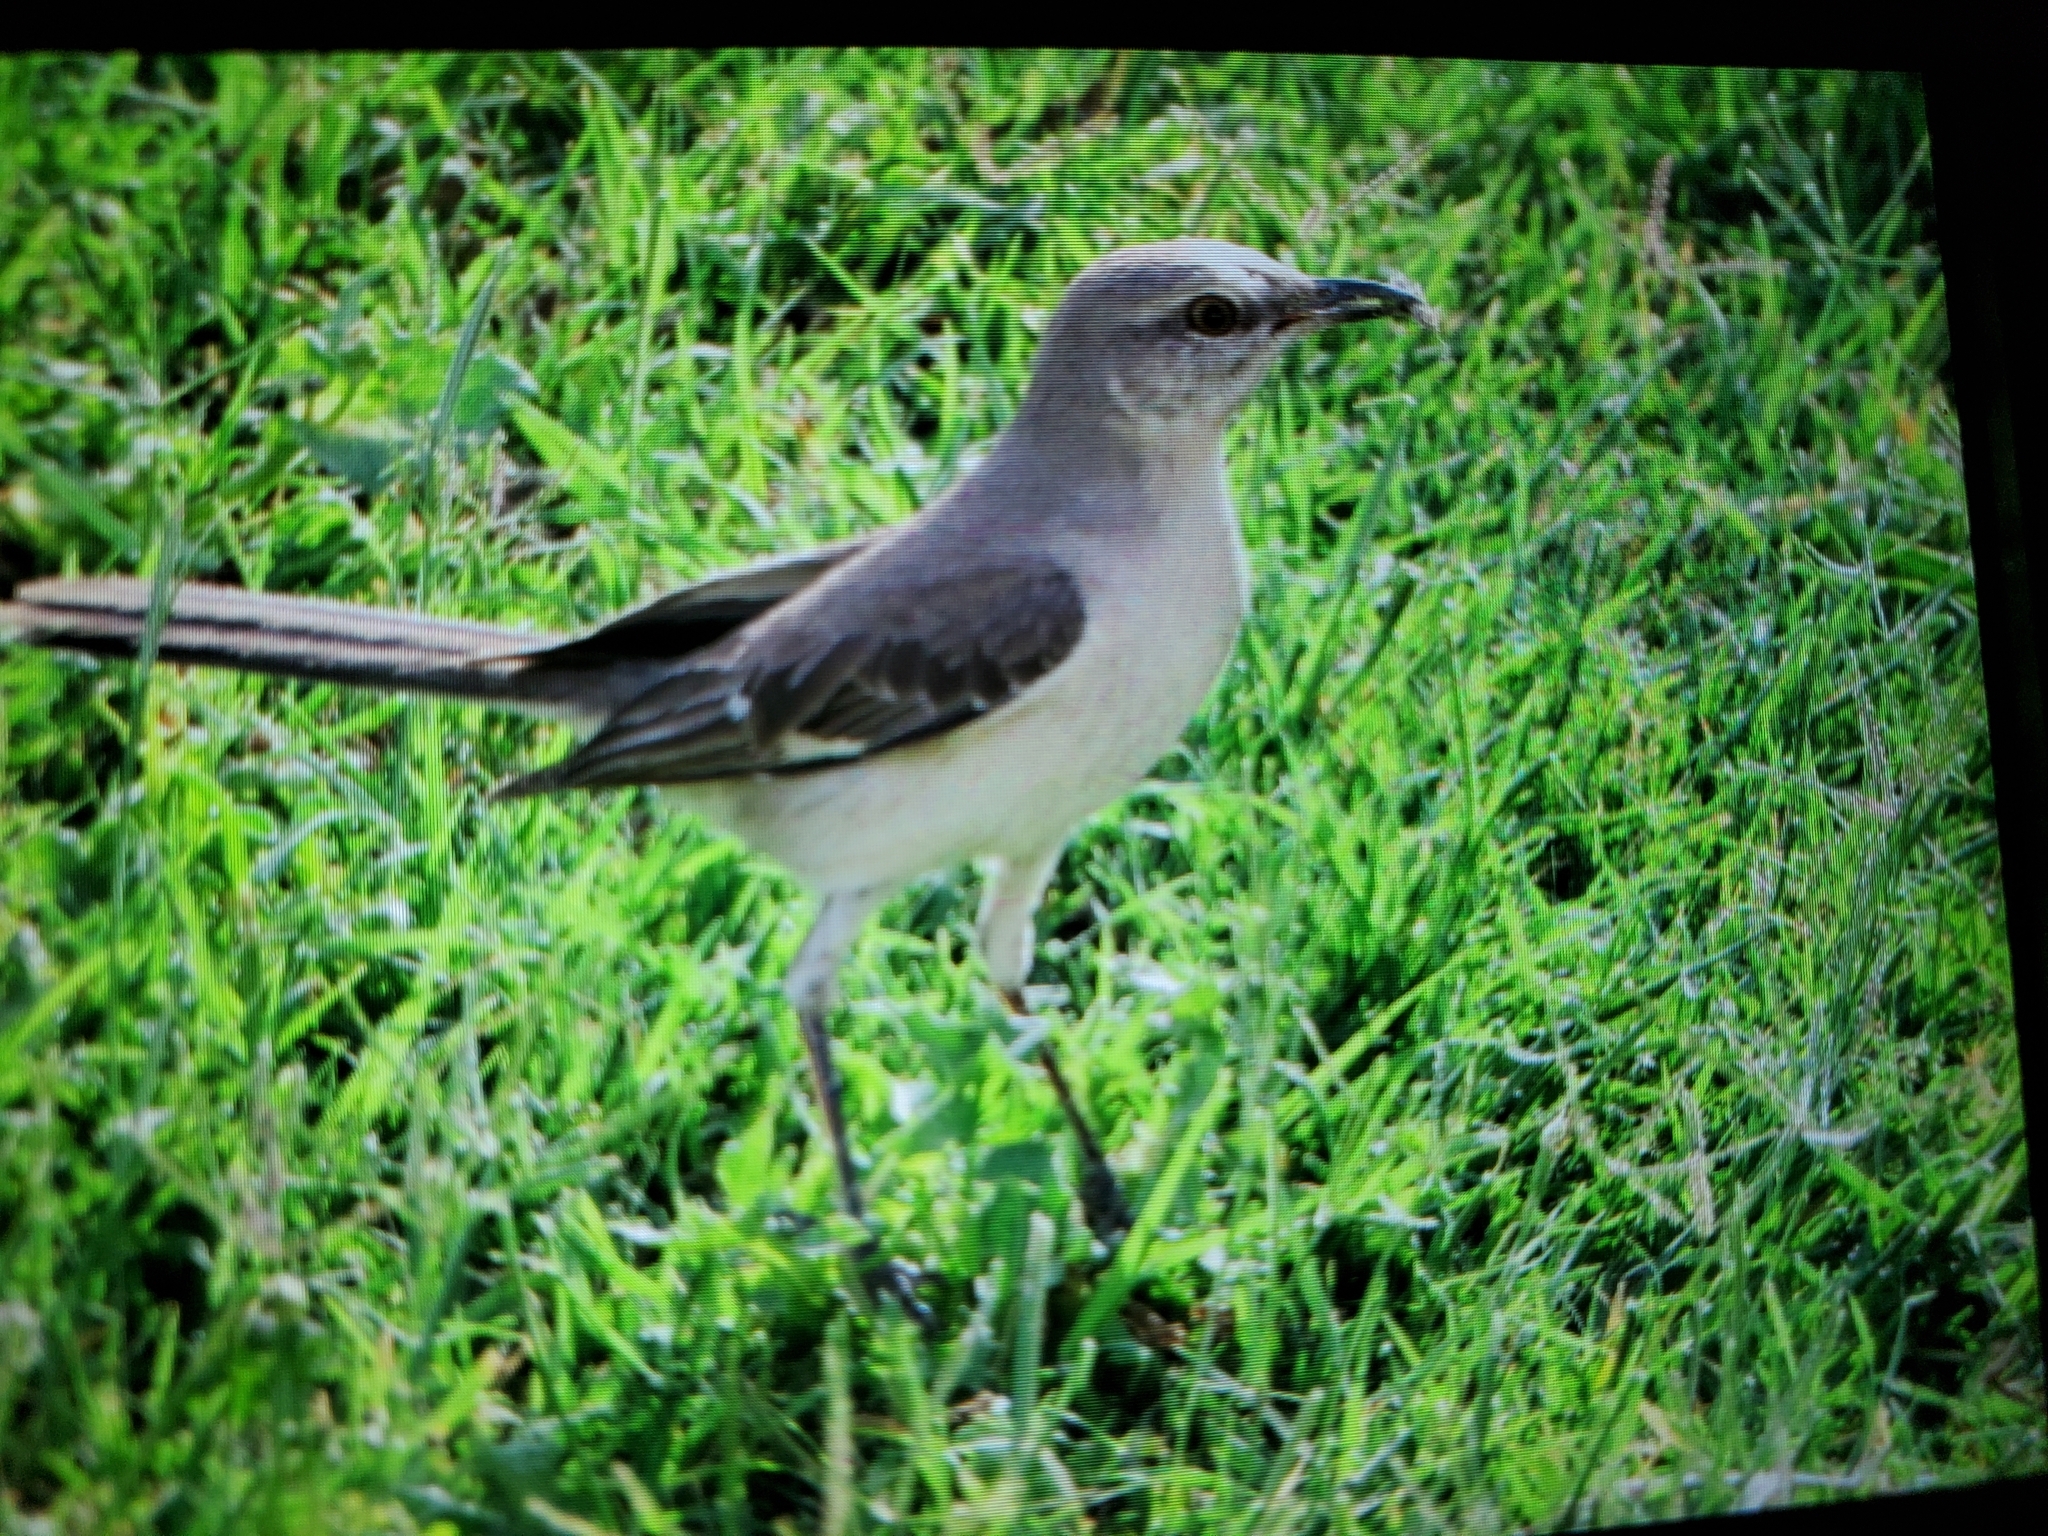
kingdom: Animalia
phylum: Chordata
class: Aves
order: Passeriformes
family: Mimidae
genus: Mimus
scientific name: Mimus polyglottos
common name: Northern mockingbird
